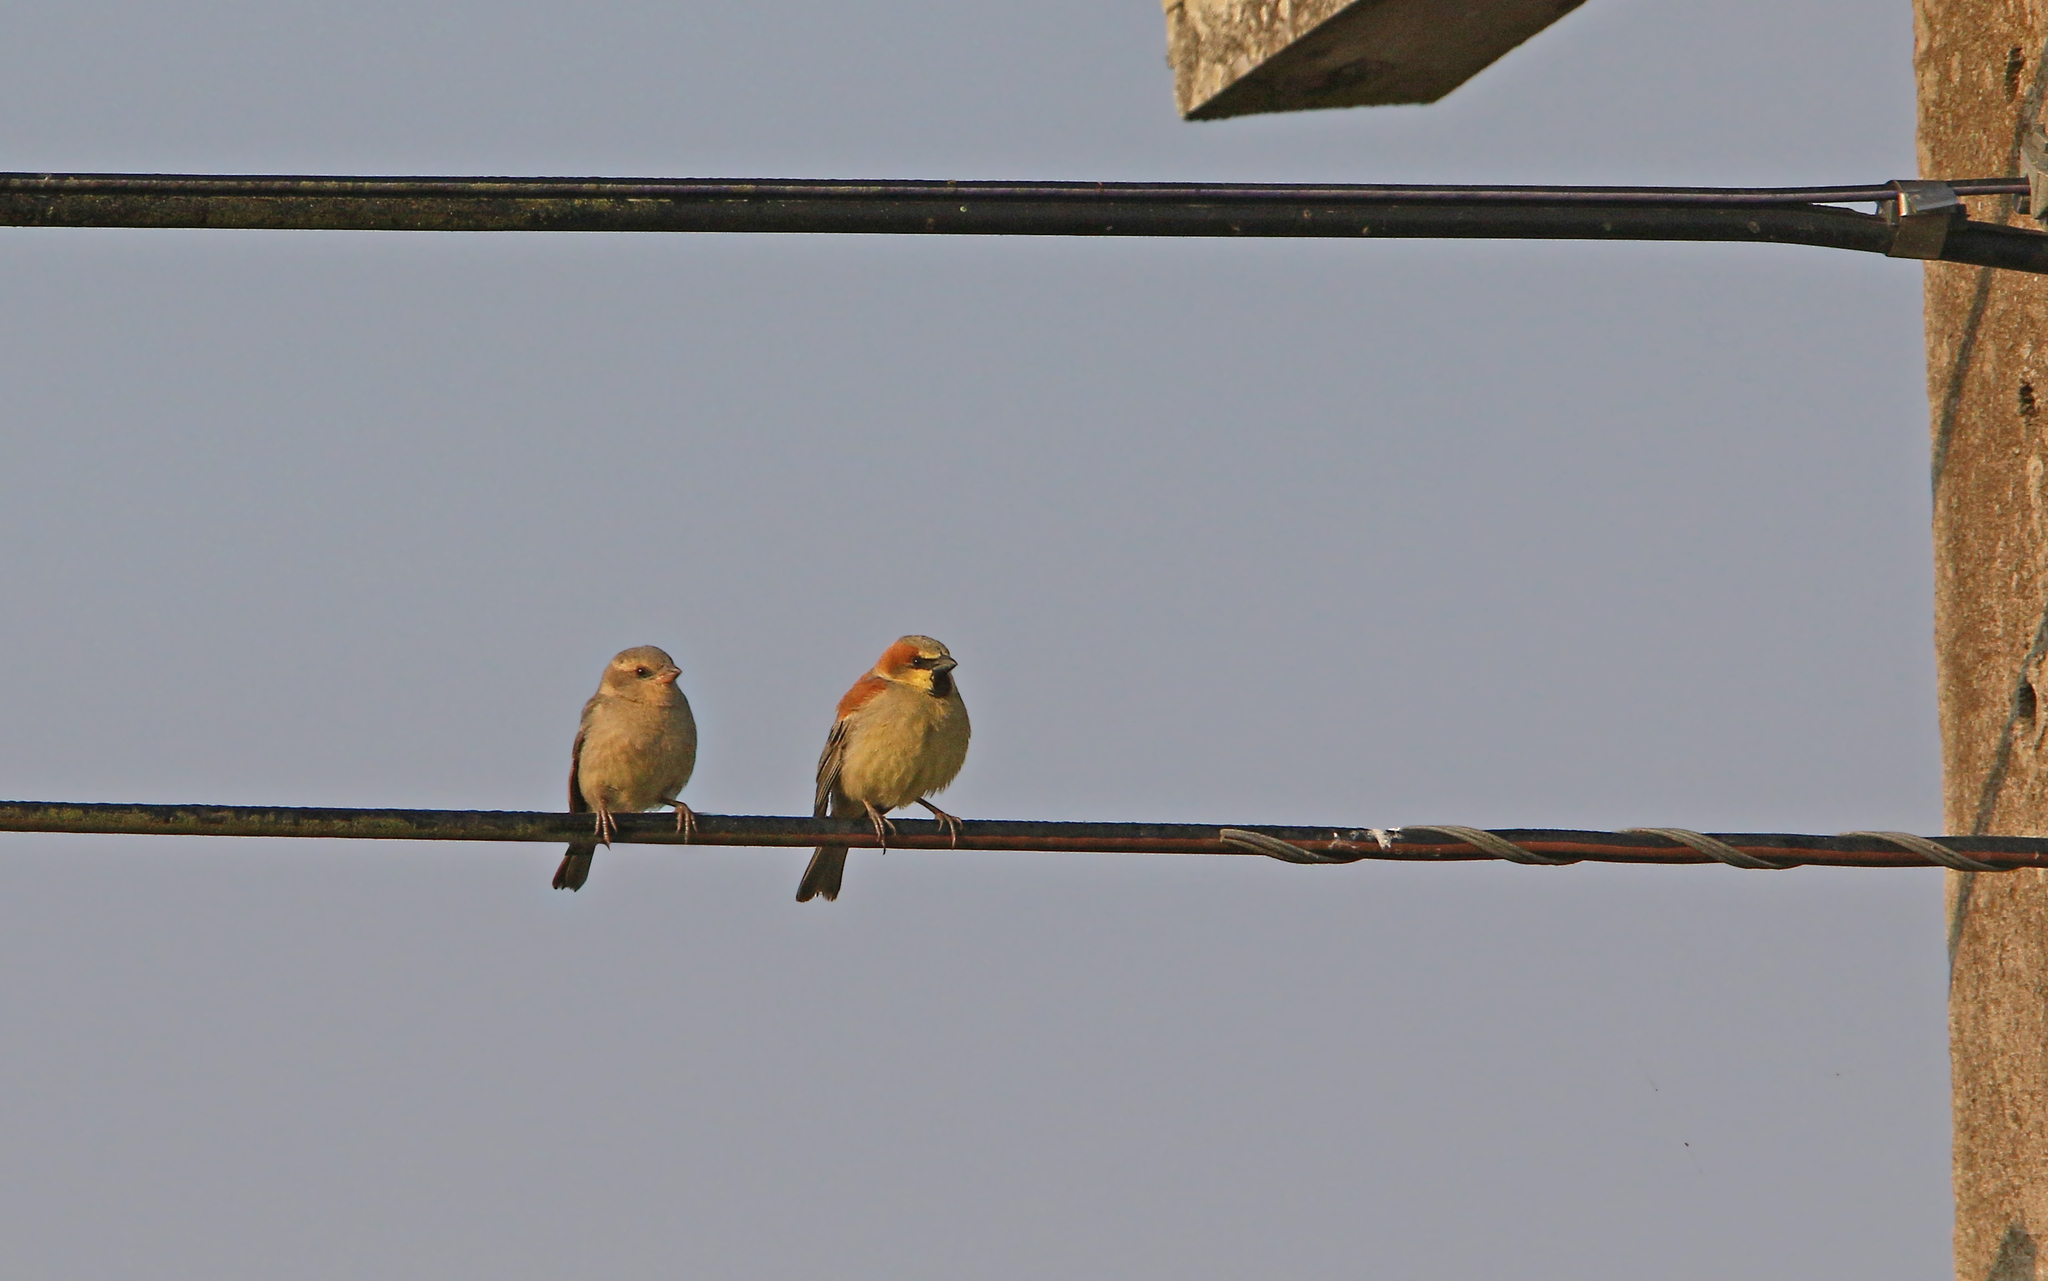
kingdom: Animalia
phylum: Chordata
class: Aves
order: Passeriformes
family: Passeridae
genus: Passer
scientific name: Passer flaveolus
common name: Plain-backed sparrow
